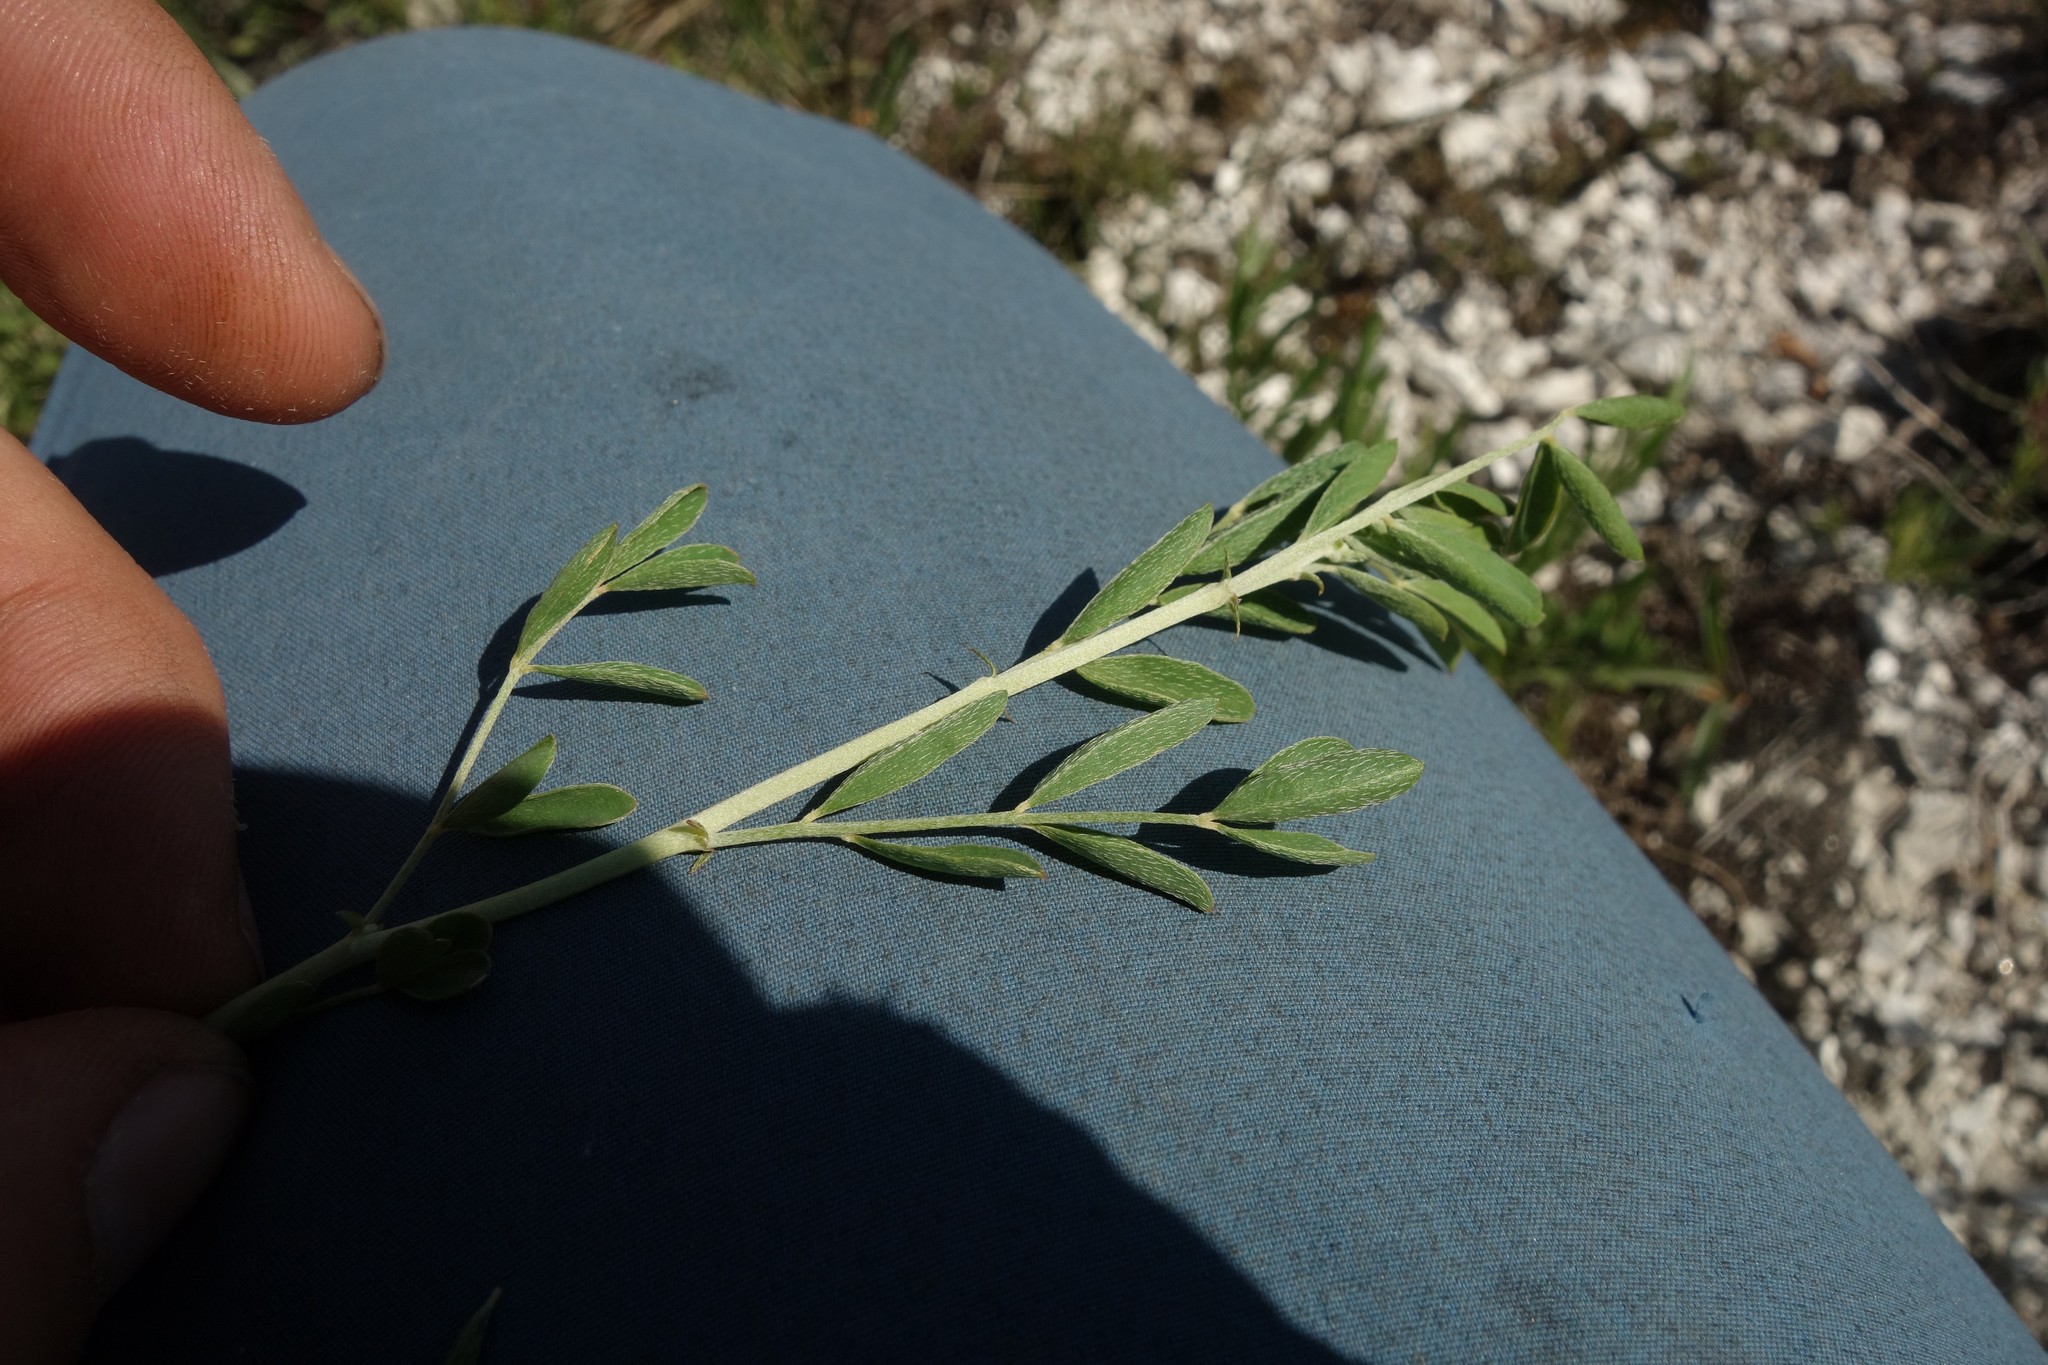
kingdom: Plantae
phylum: Tracheophyta
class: Magnoliopsida
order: Fabales
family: Fabaceae
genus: Astragalus
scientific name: Astragalus albicaulis
